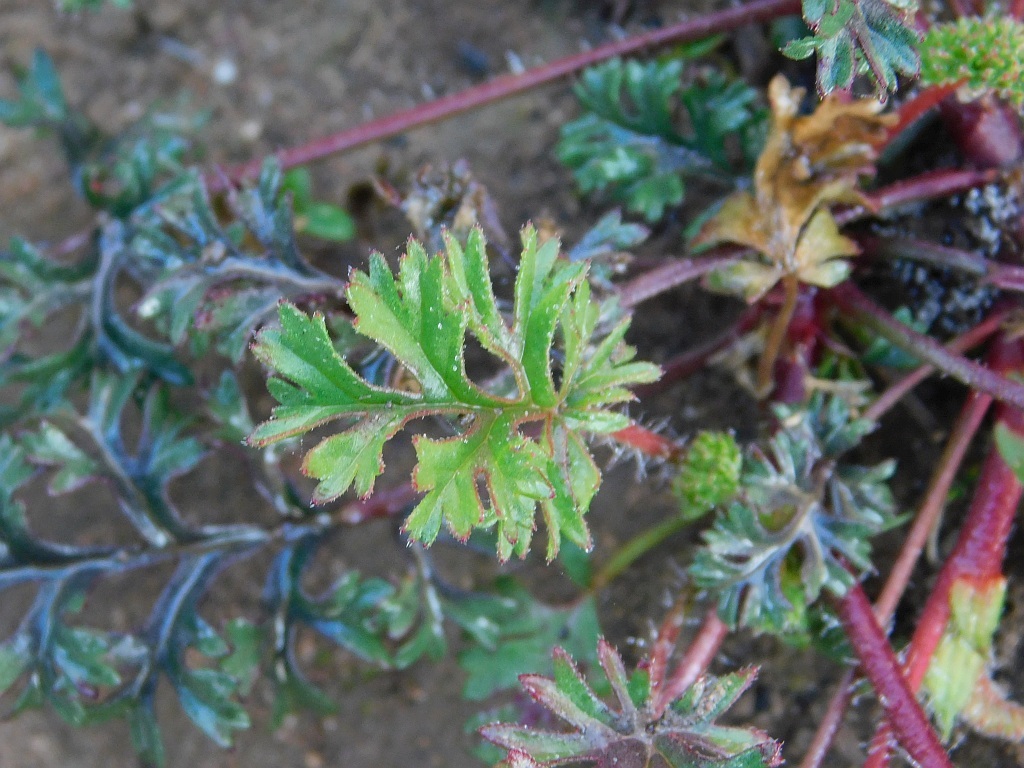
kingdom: Plantae
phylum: Tracheophyta
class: Magnoliopsida
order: Geraniales
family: Geraniaceae
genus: Pelargonium
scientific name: Pelargonium myrrhifolium
